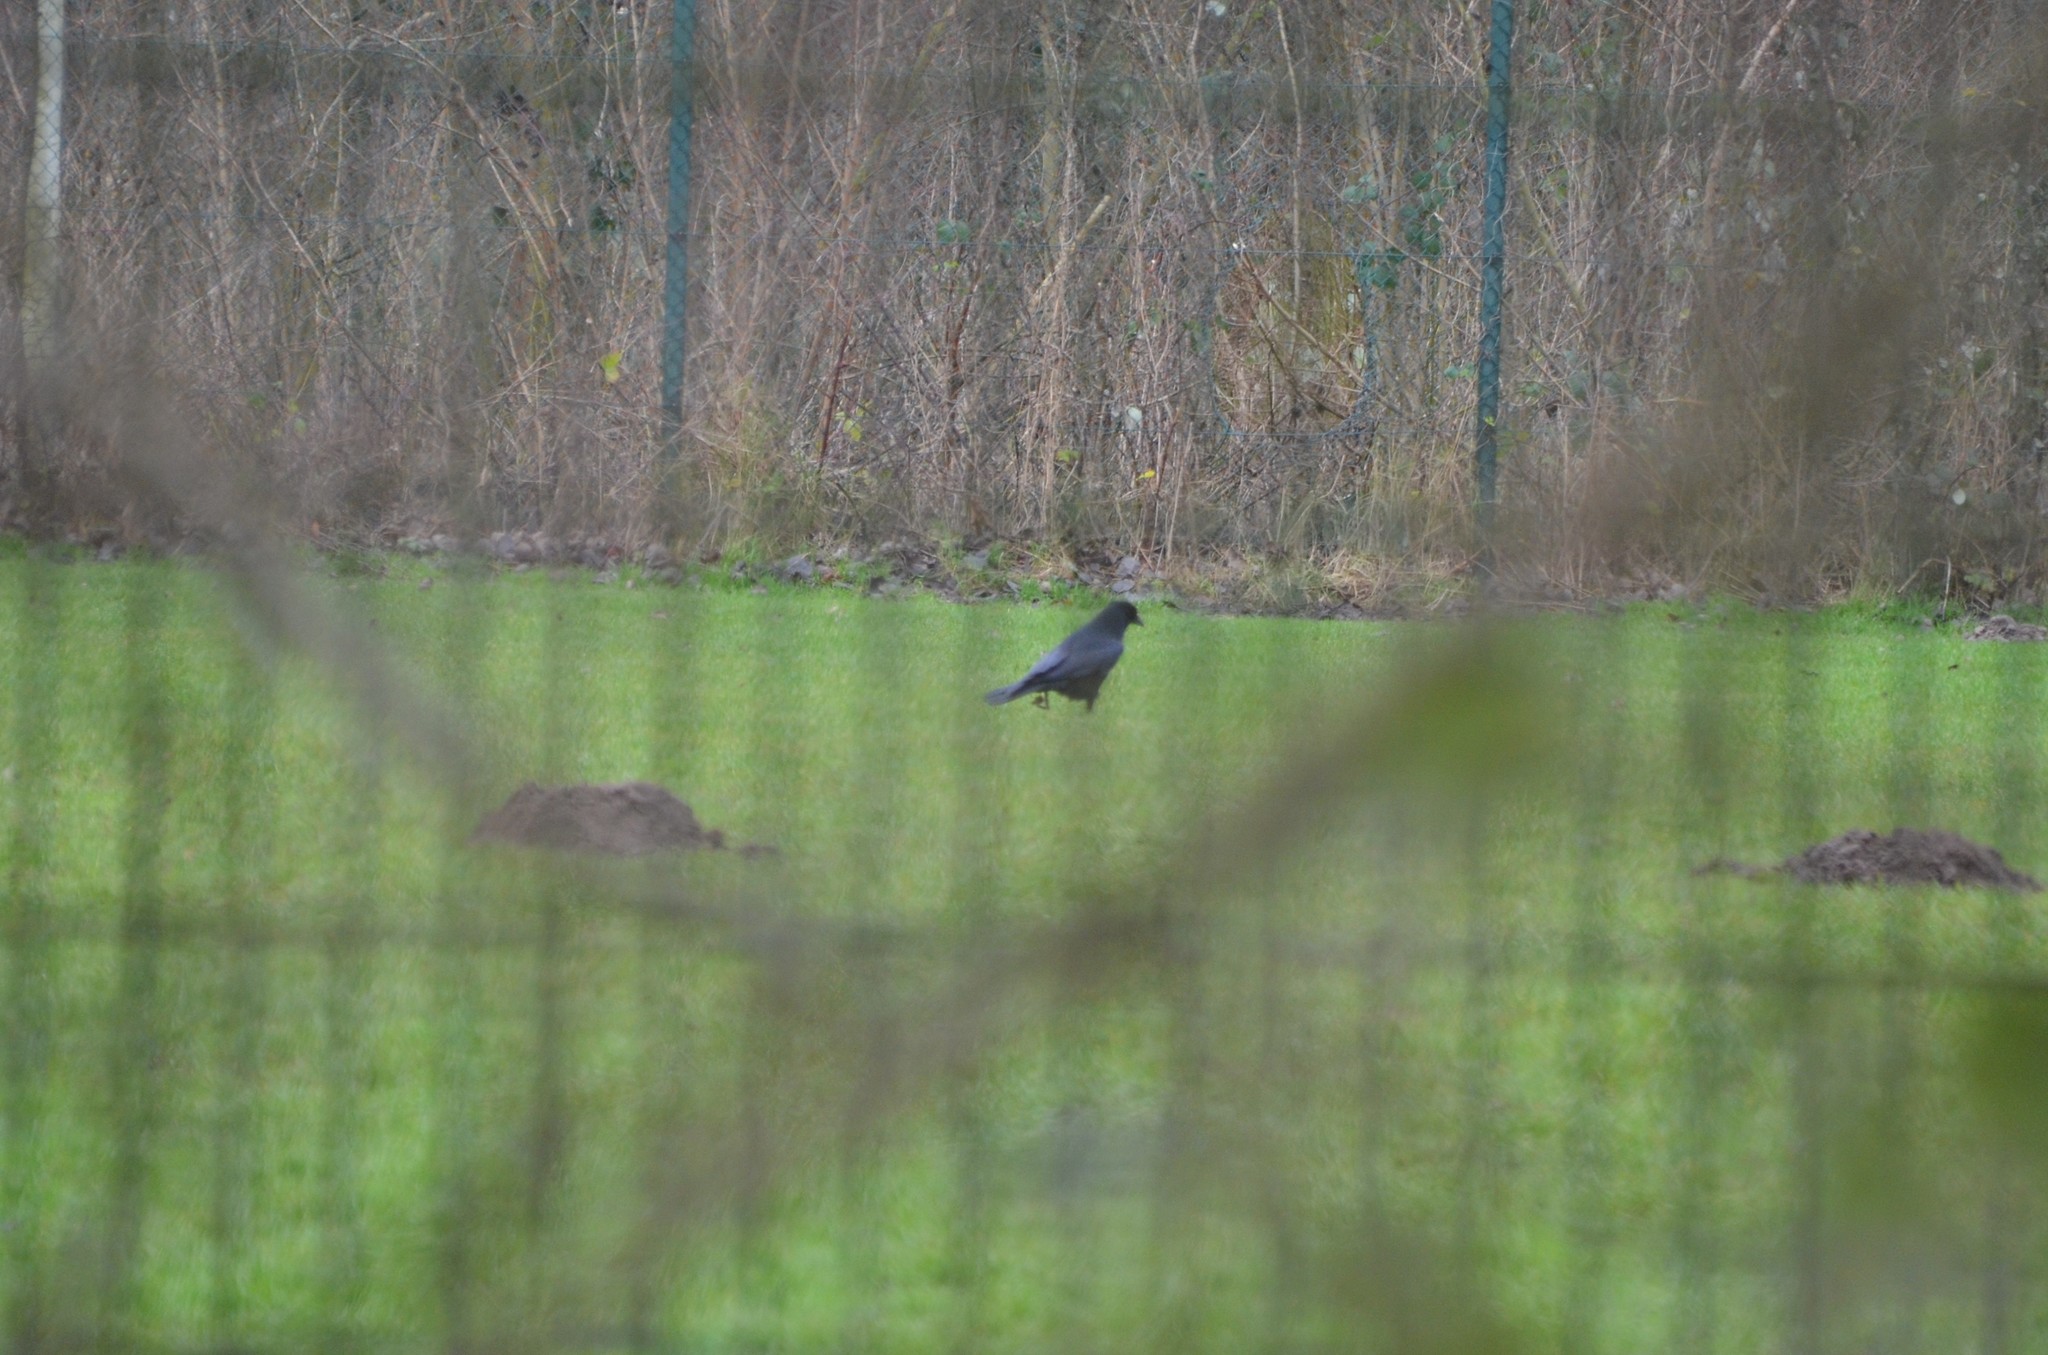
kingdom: Animalia
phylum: Chordata
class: Aves
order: Passeriformes
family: Corvidae
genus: Corvus
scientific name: Corvus corone
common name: Carrion crow
